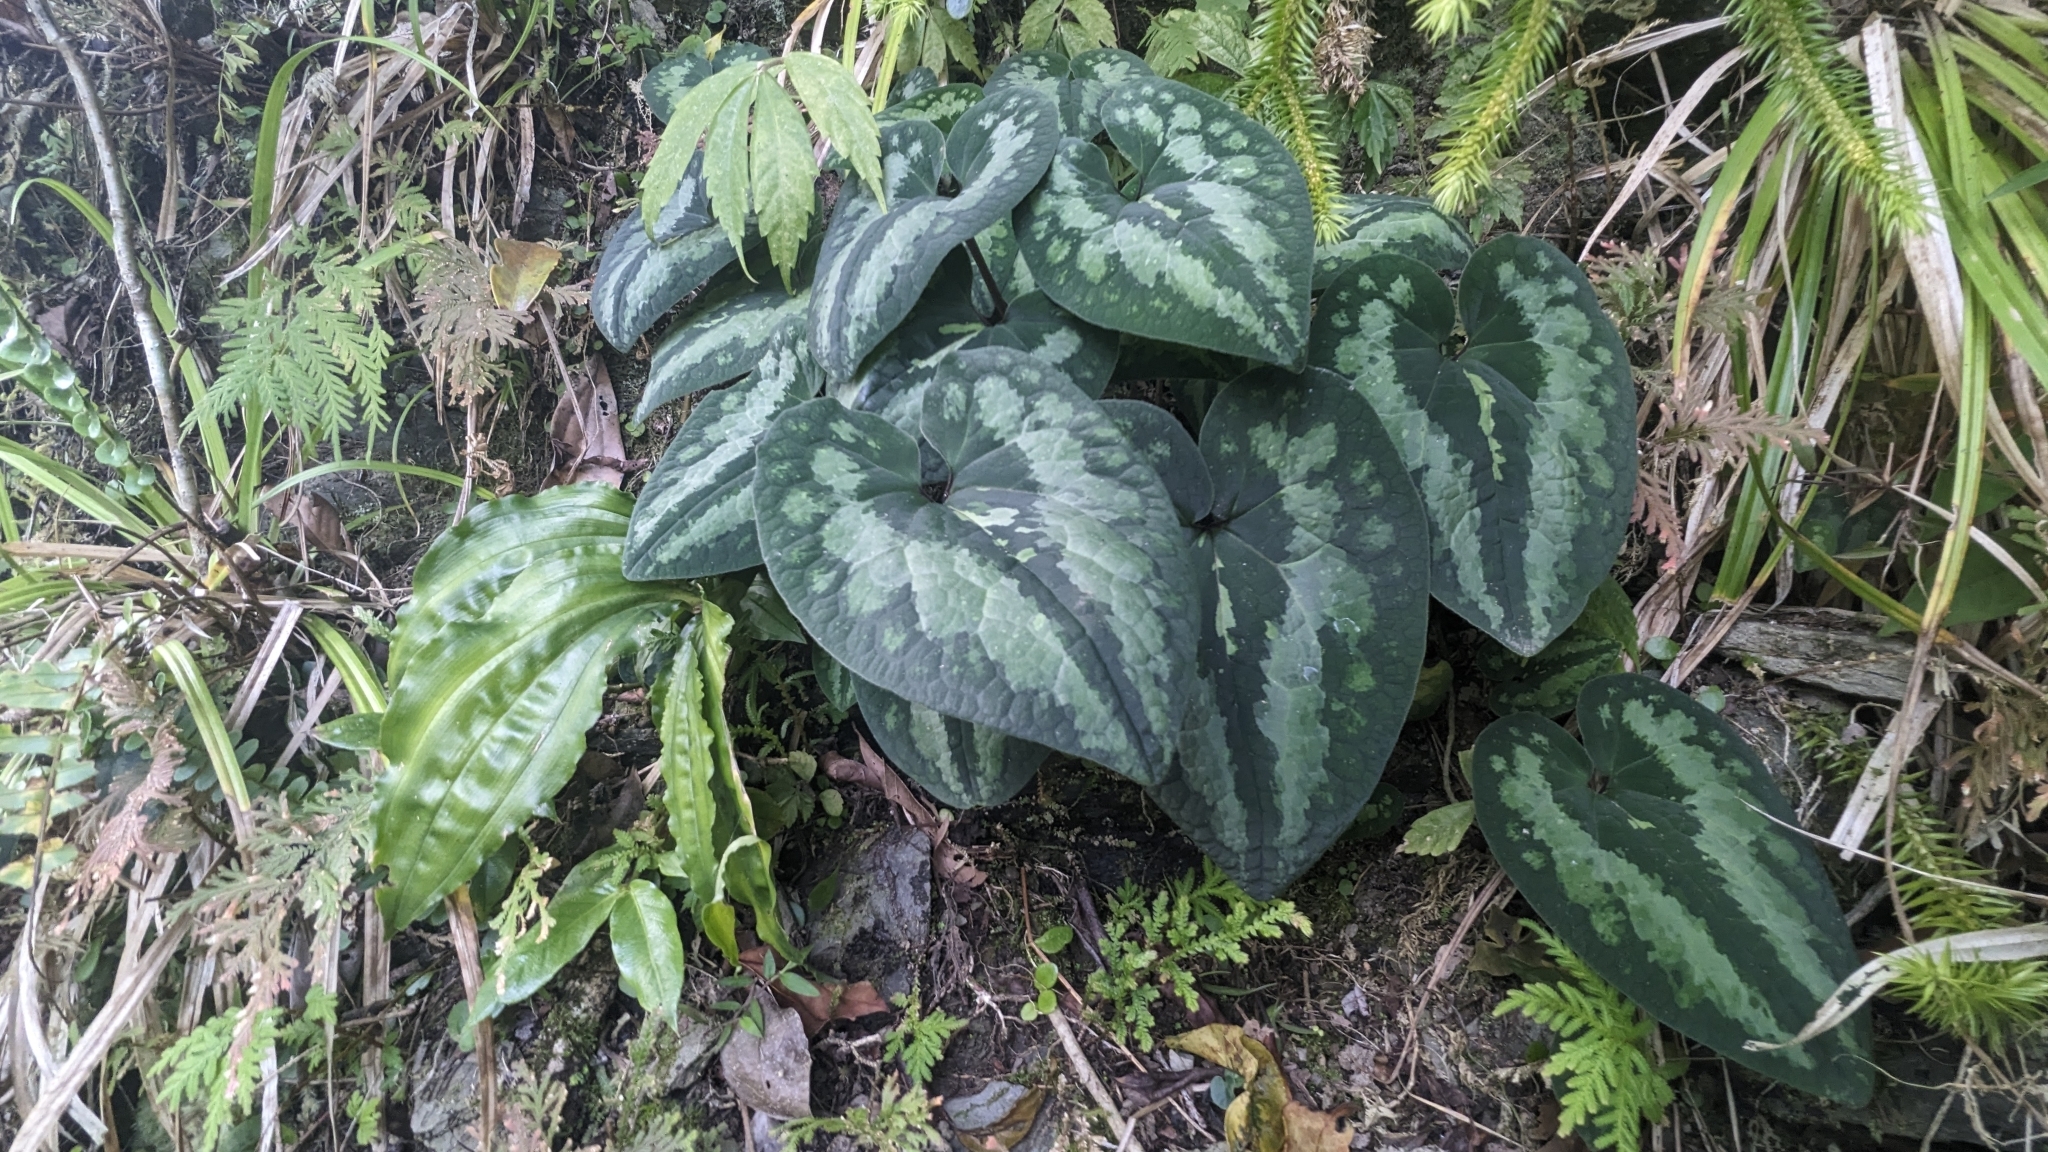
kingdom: Plantae
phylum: Tracheophyta
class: Magnoliopsida
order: Piperales
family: Aristolochiaceae
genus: Asarum
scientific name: Asarum chatienshanianum
